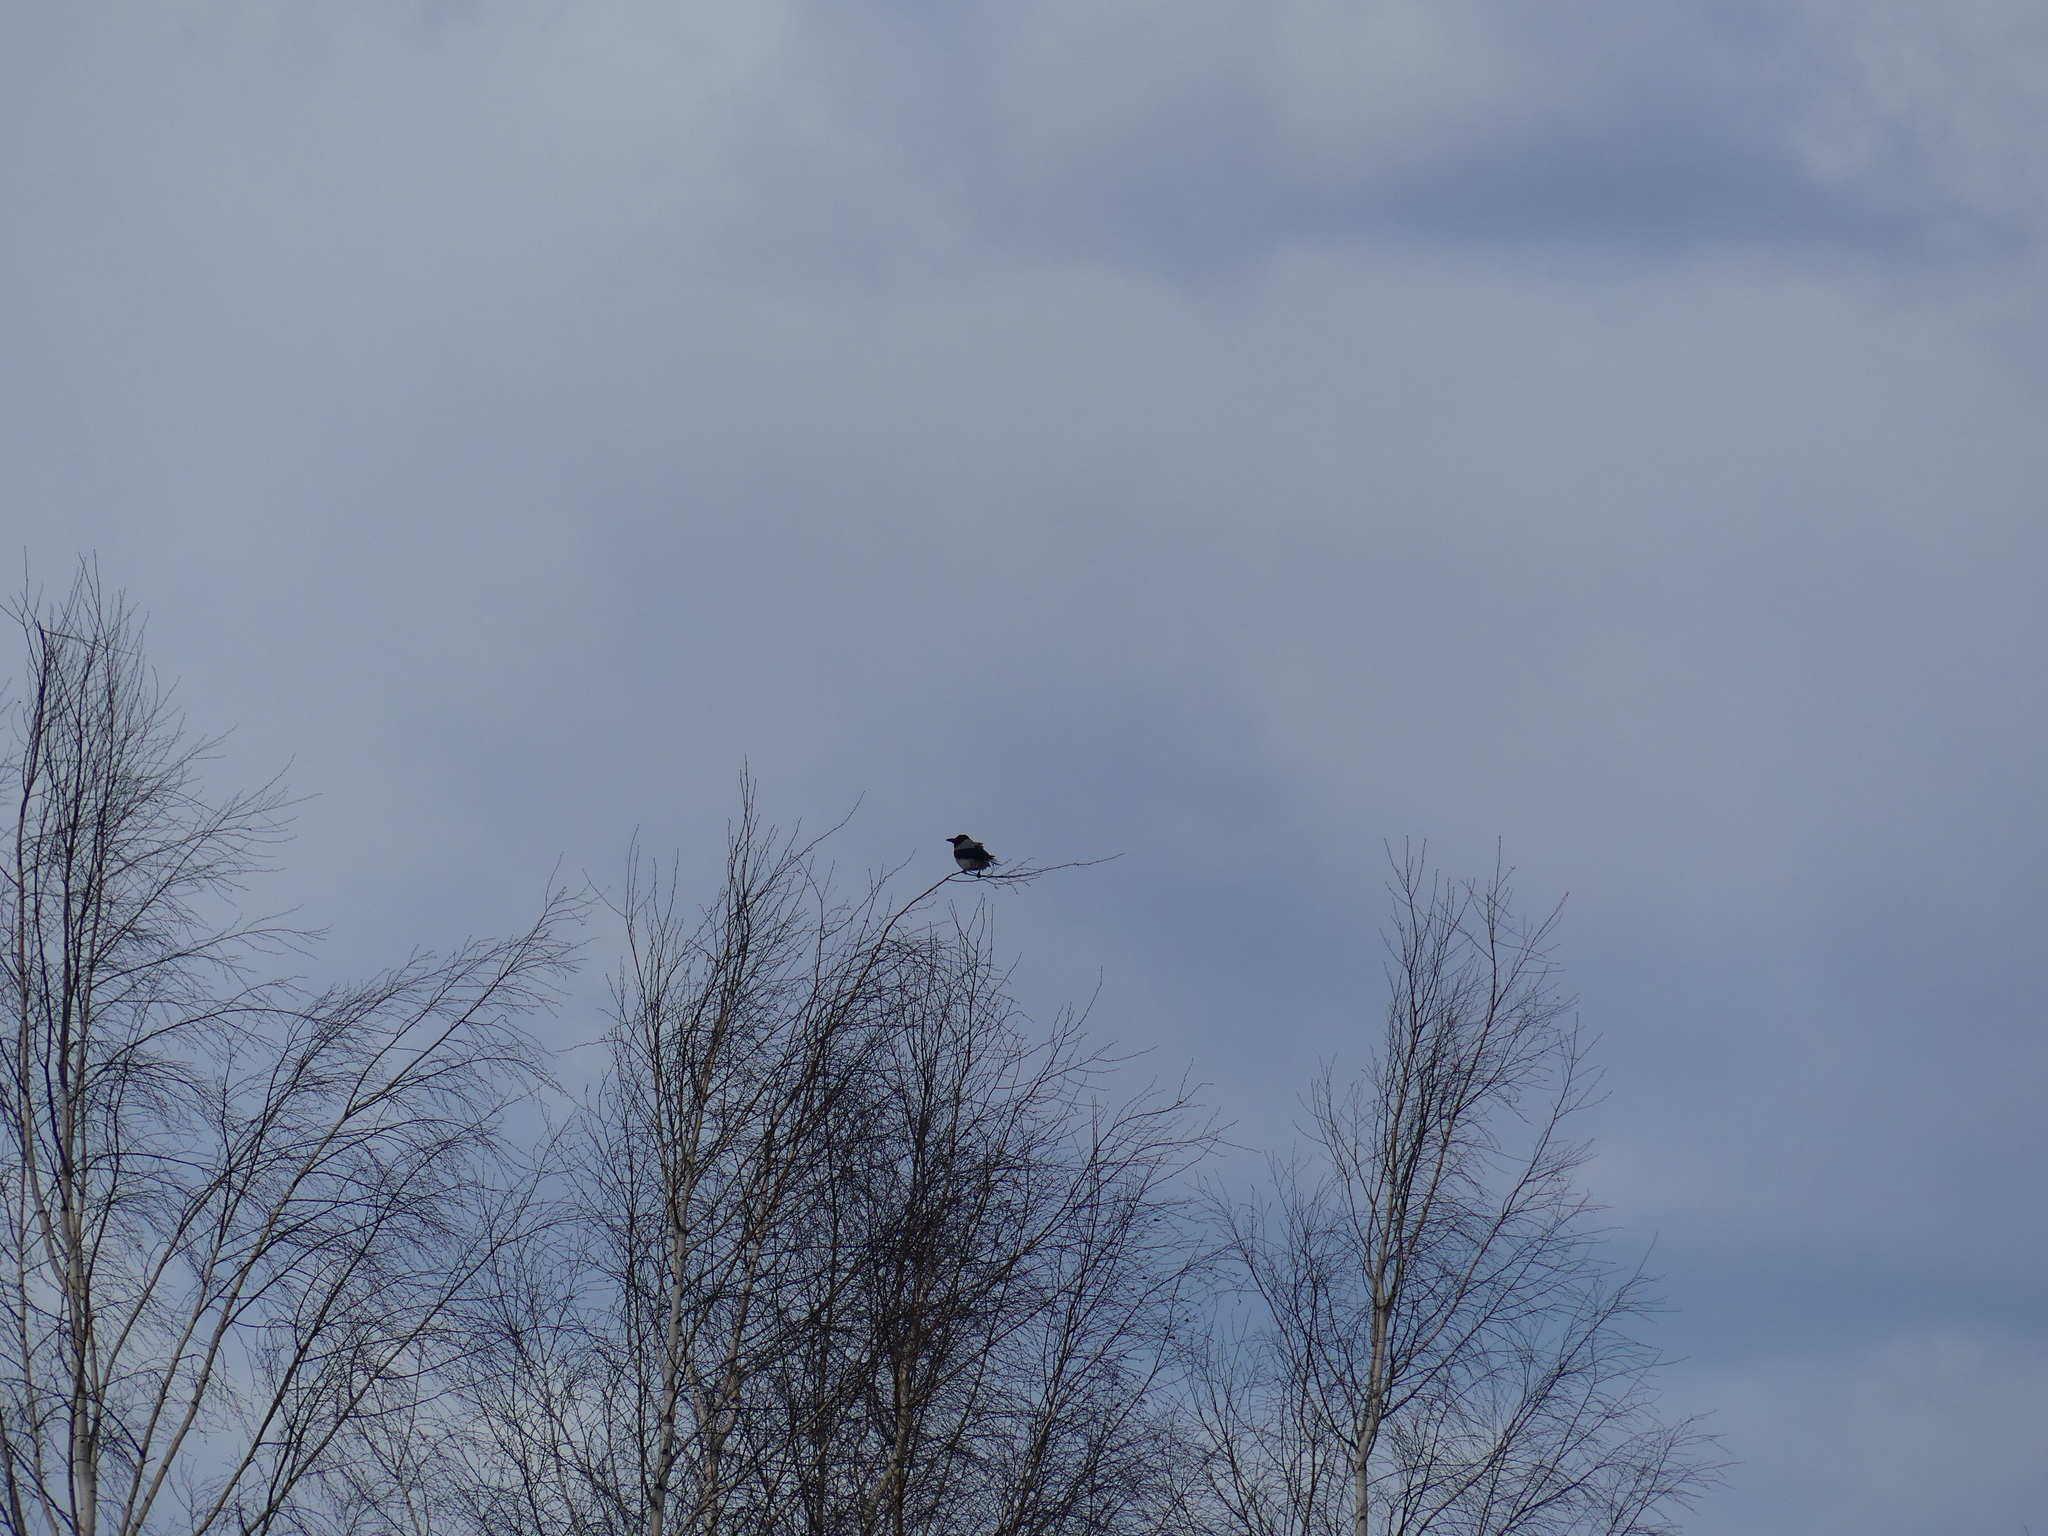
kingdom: Animalia
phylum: Chordata
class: Aves
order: Passeriformes
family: Corvidae
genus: Corvus
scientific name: Corvus cornix
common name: Hooded crow
